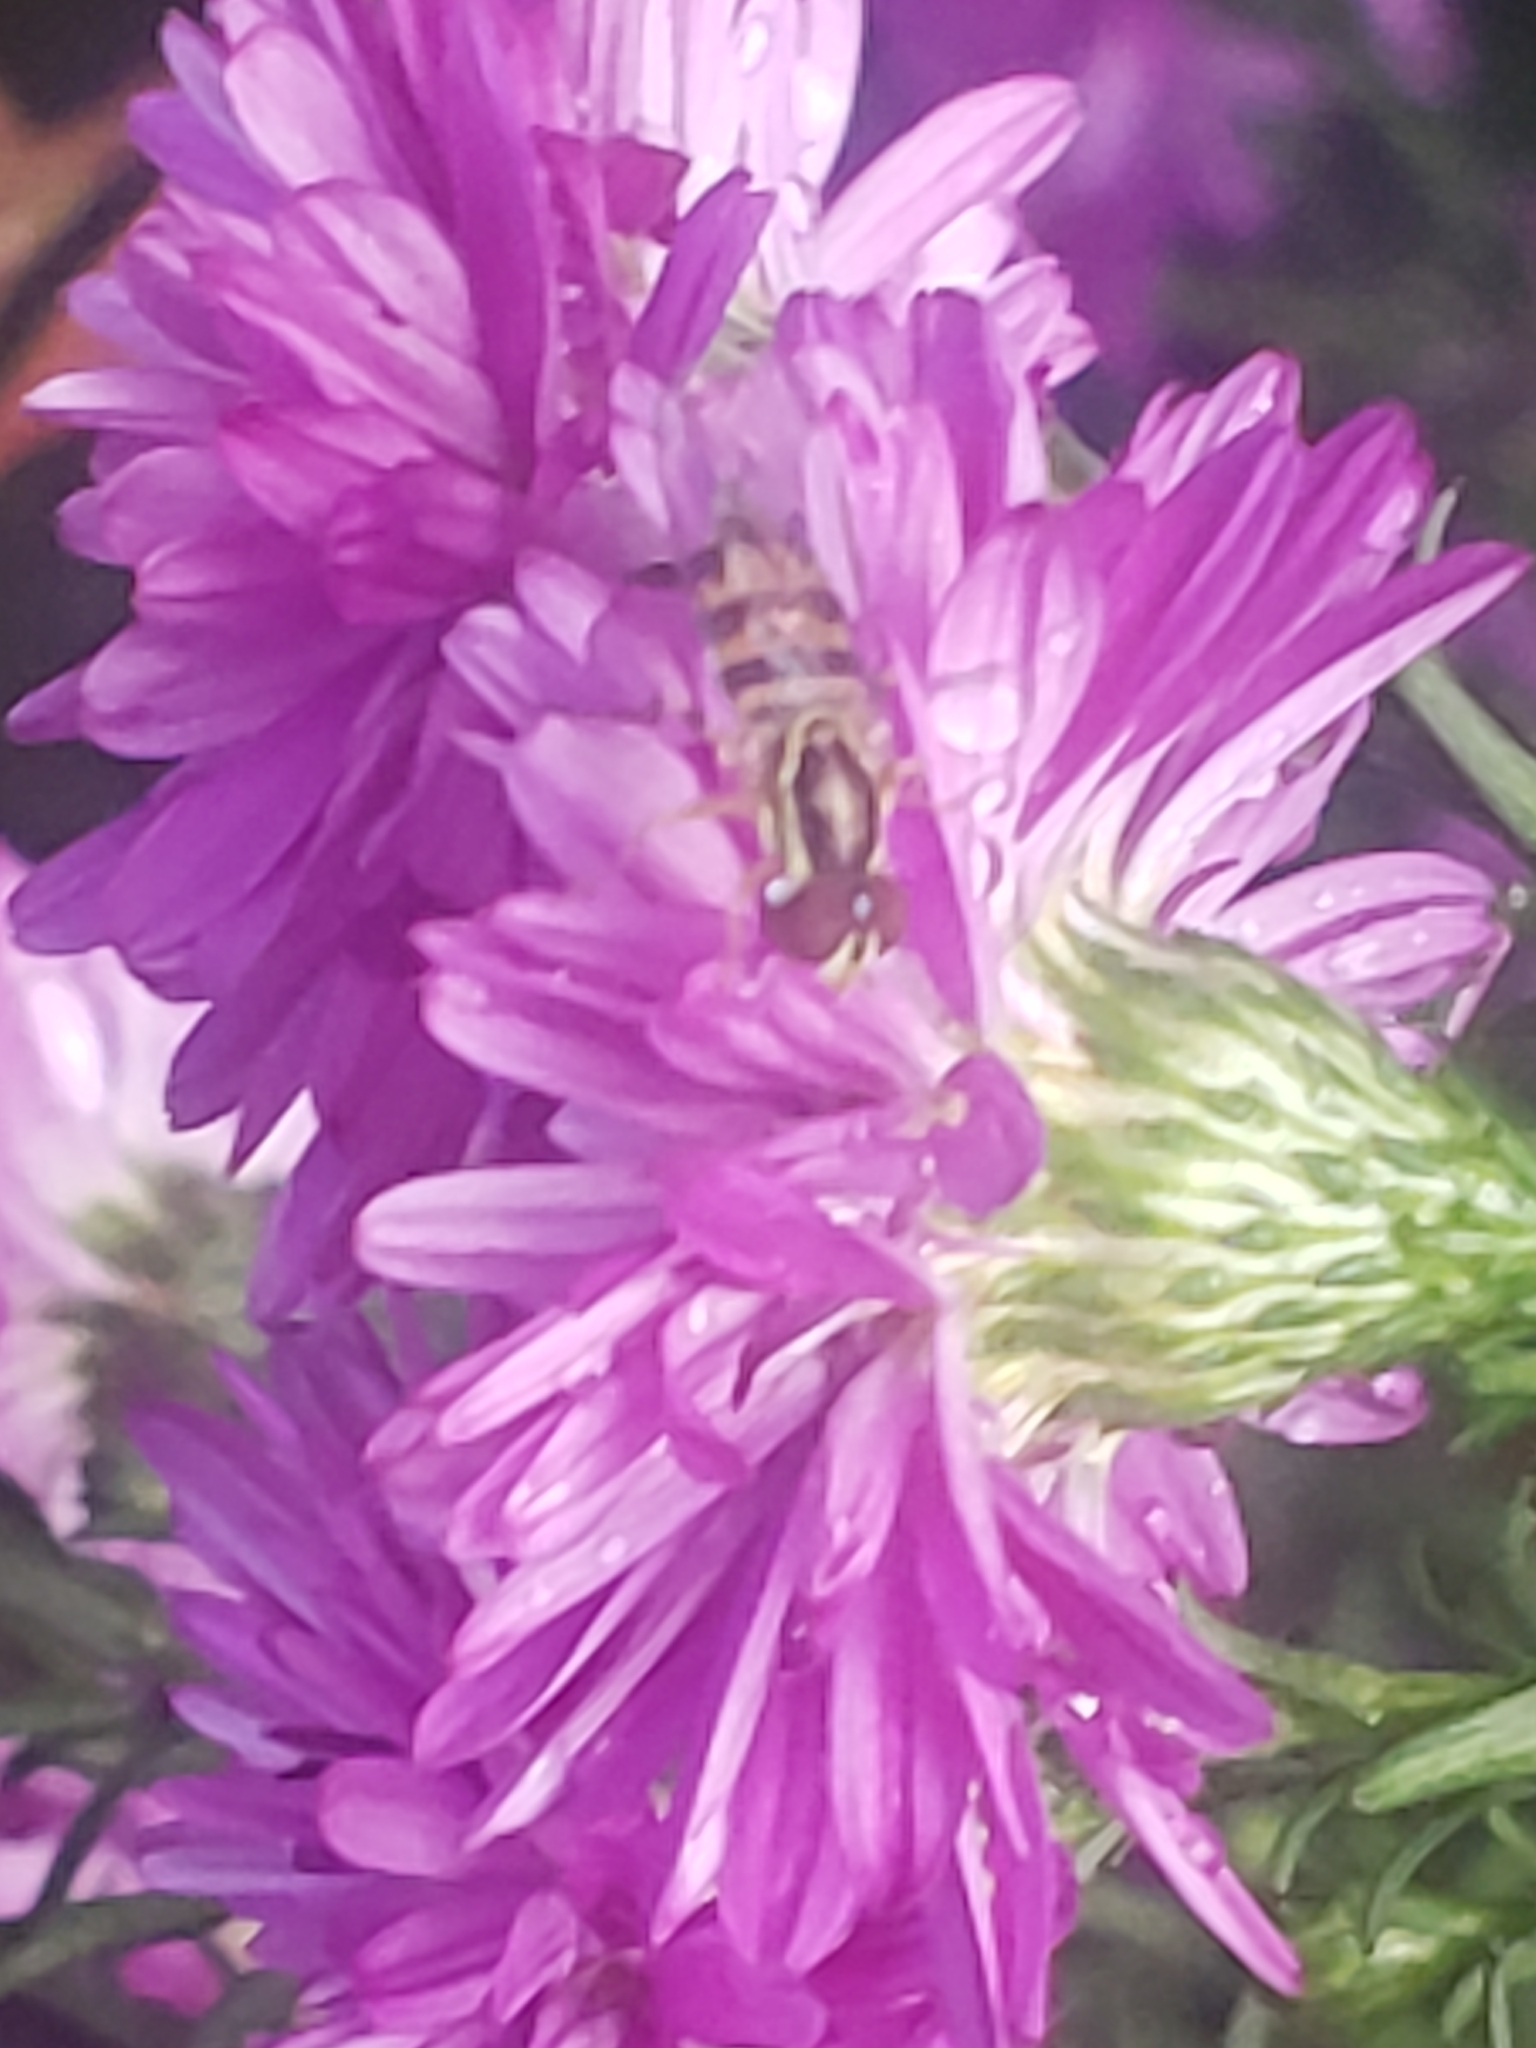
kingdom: Animalia
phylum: Arthropoda
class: Insecta
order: Diptera
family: Syrphidae
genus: Toxomerus
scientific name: Toxomerus geminatus
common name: Eastern calligrapher
